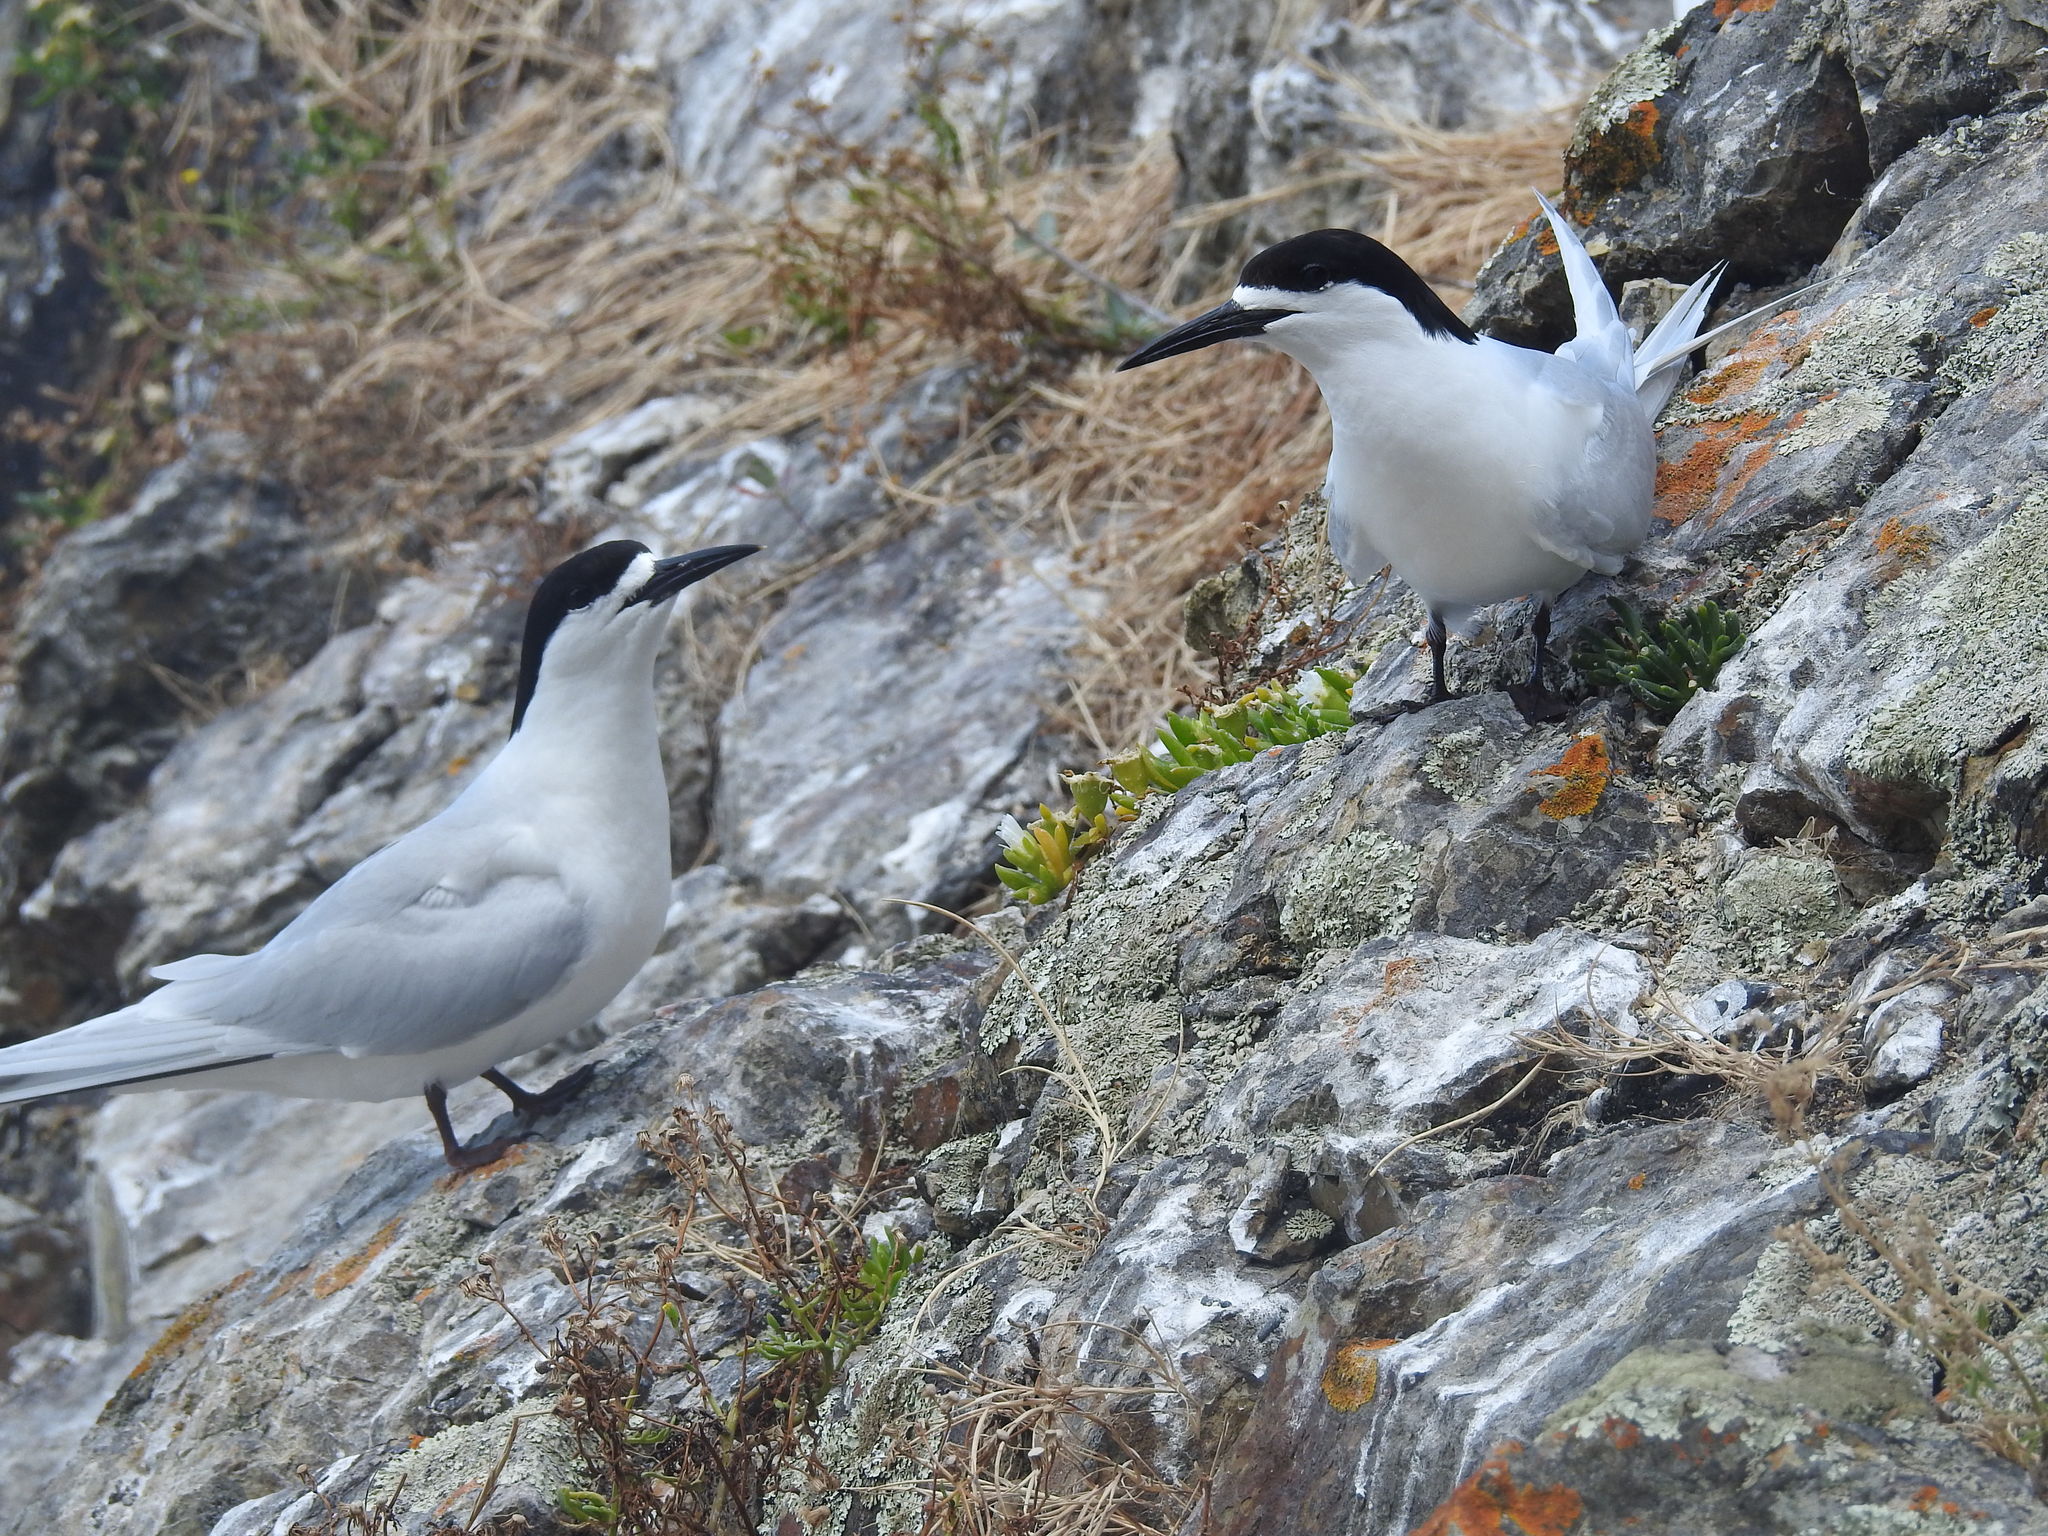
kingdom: Animalia
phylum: Chordata
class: Aves
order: Charadriiformes
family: Laridae
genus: Sterna
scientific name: Sterna striata
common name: White-fronted tern
